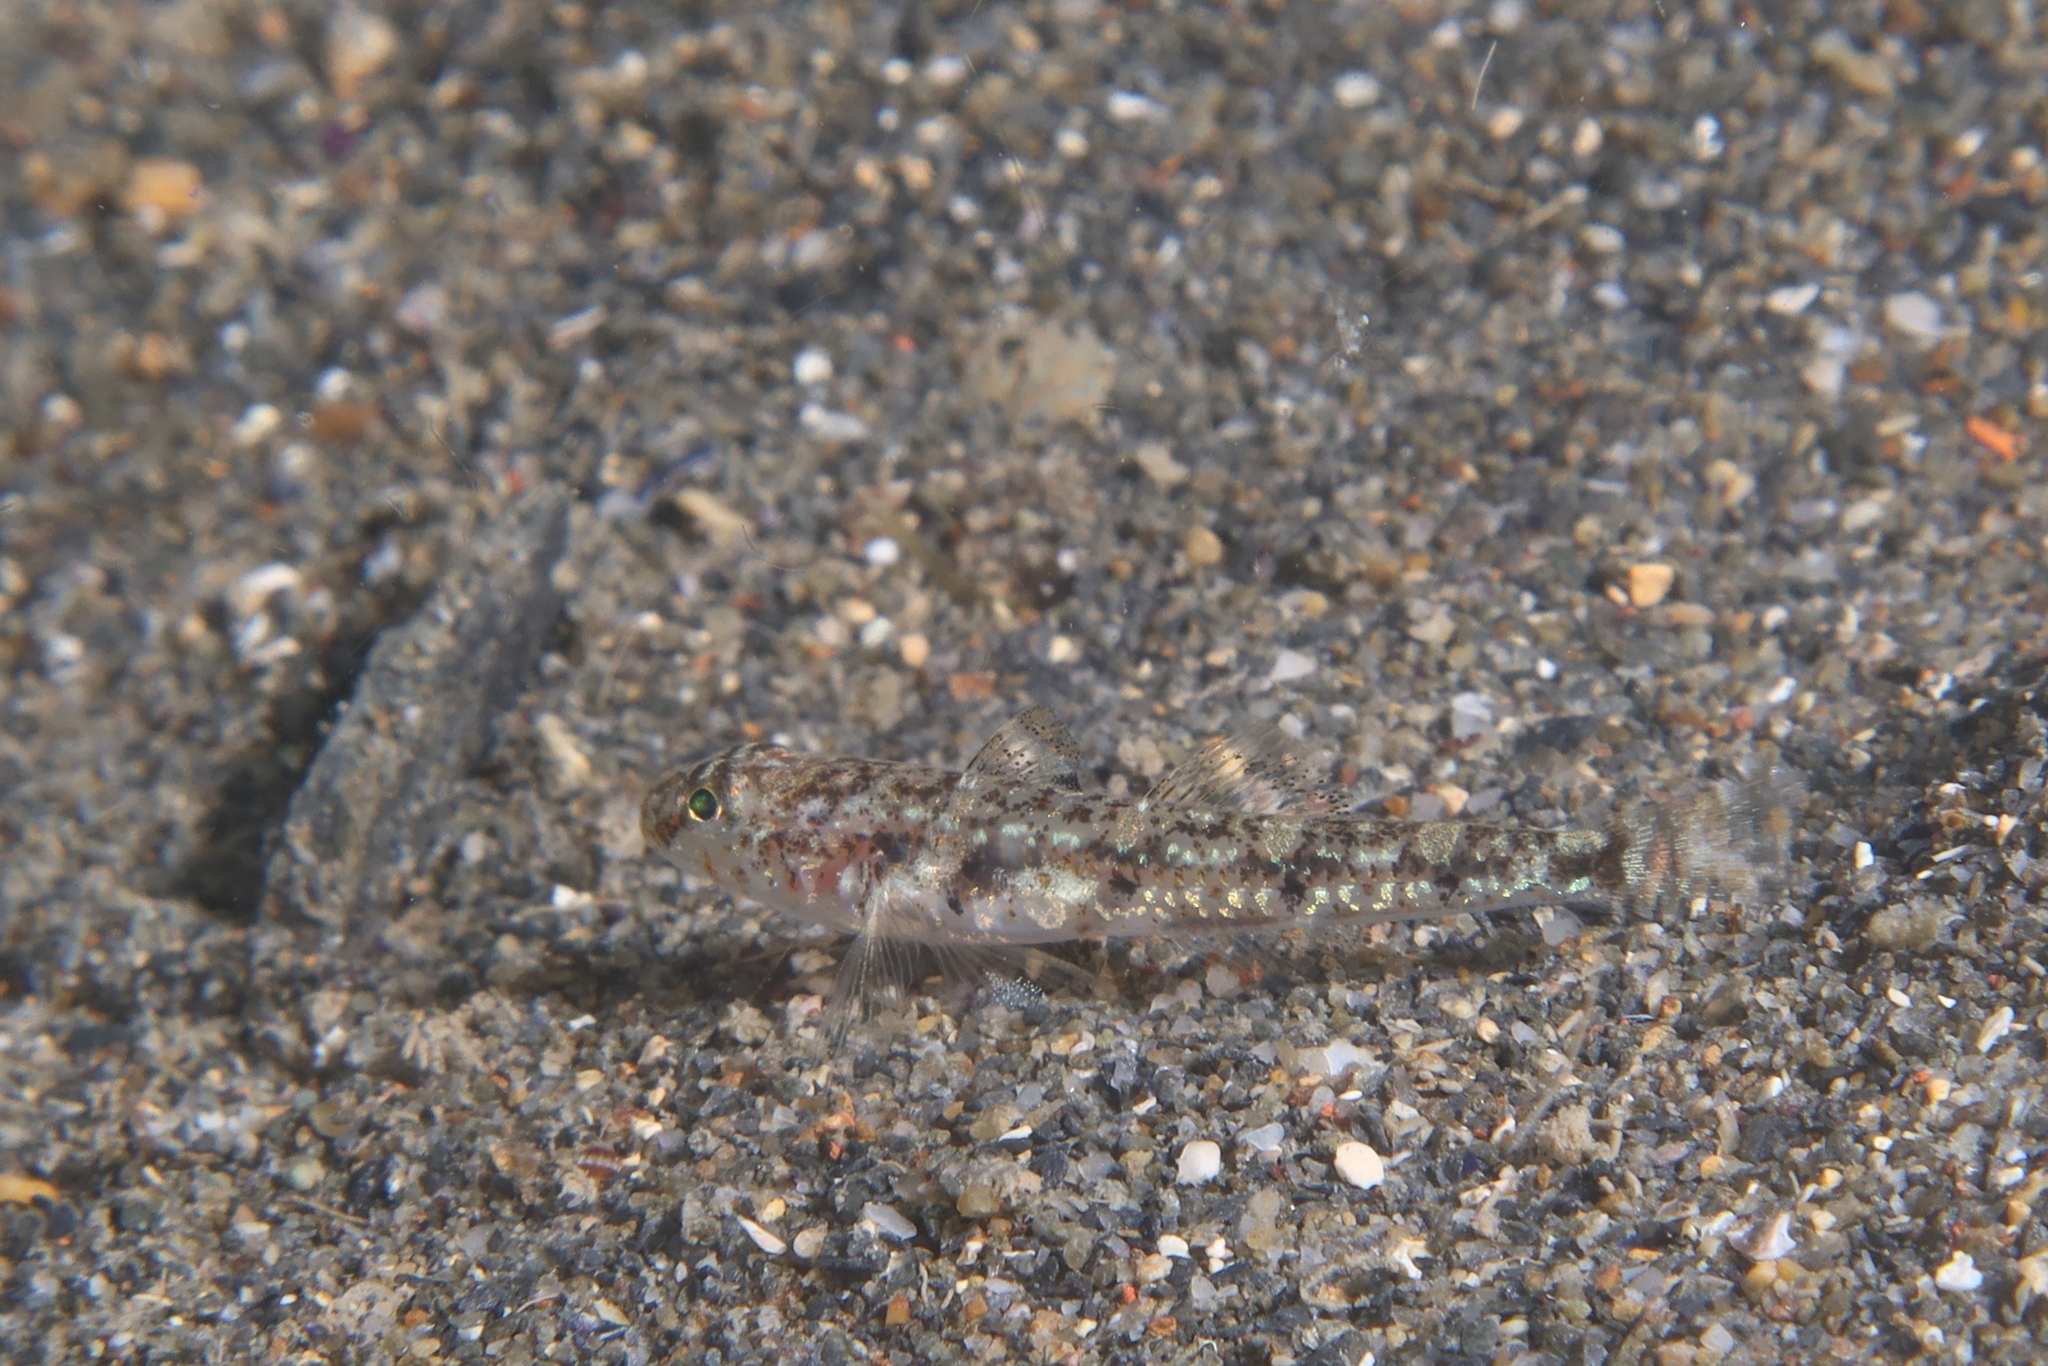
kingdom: Animalia
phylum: Chordata
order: Perciformes
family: Gobiidae
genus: Deltentosteus
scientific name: Deltentosteus quadrimaculatus
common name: Four-spotted goby
